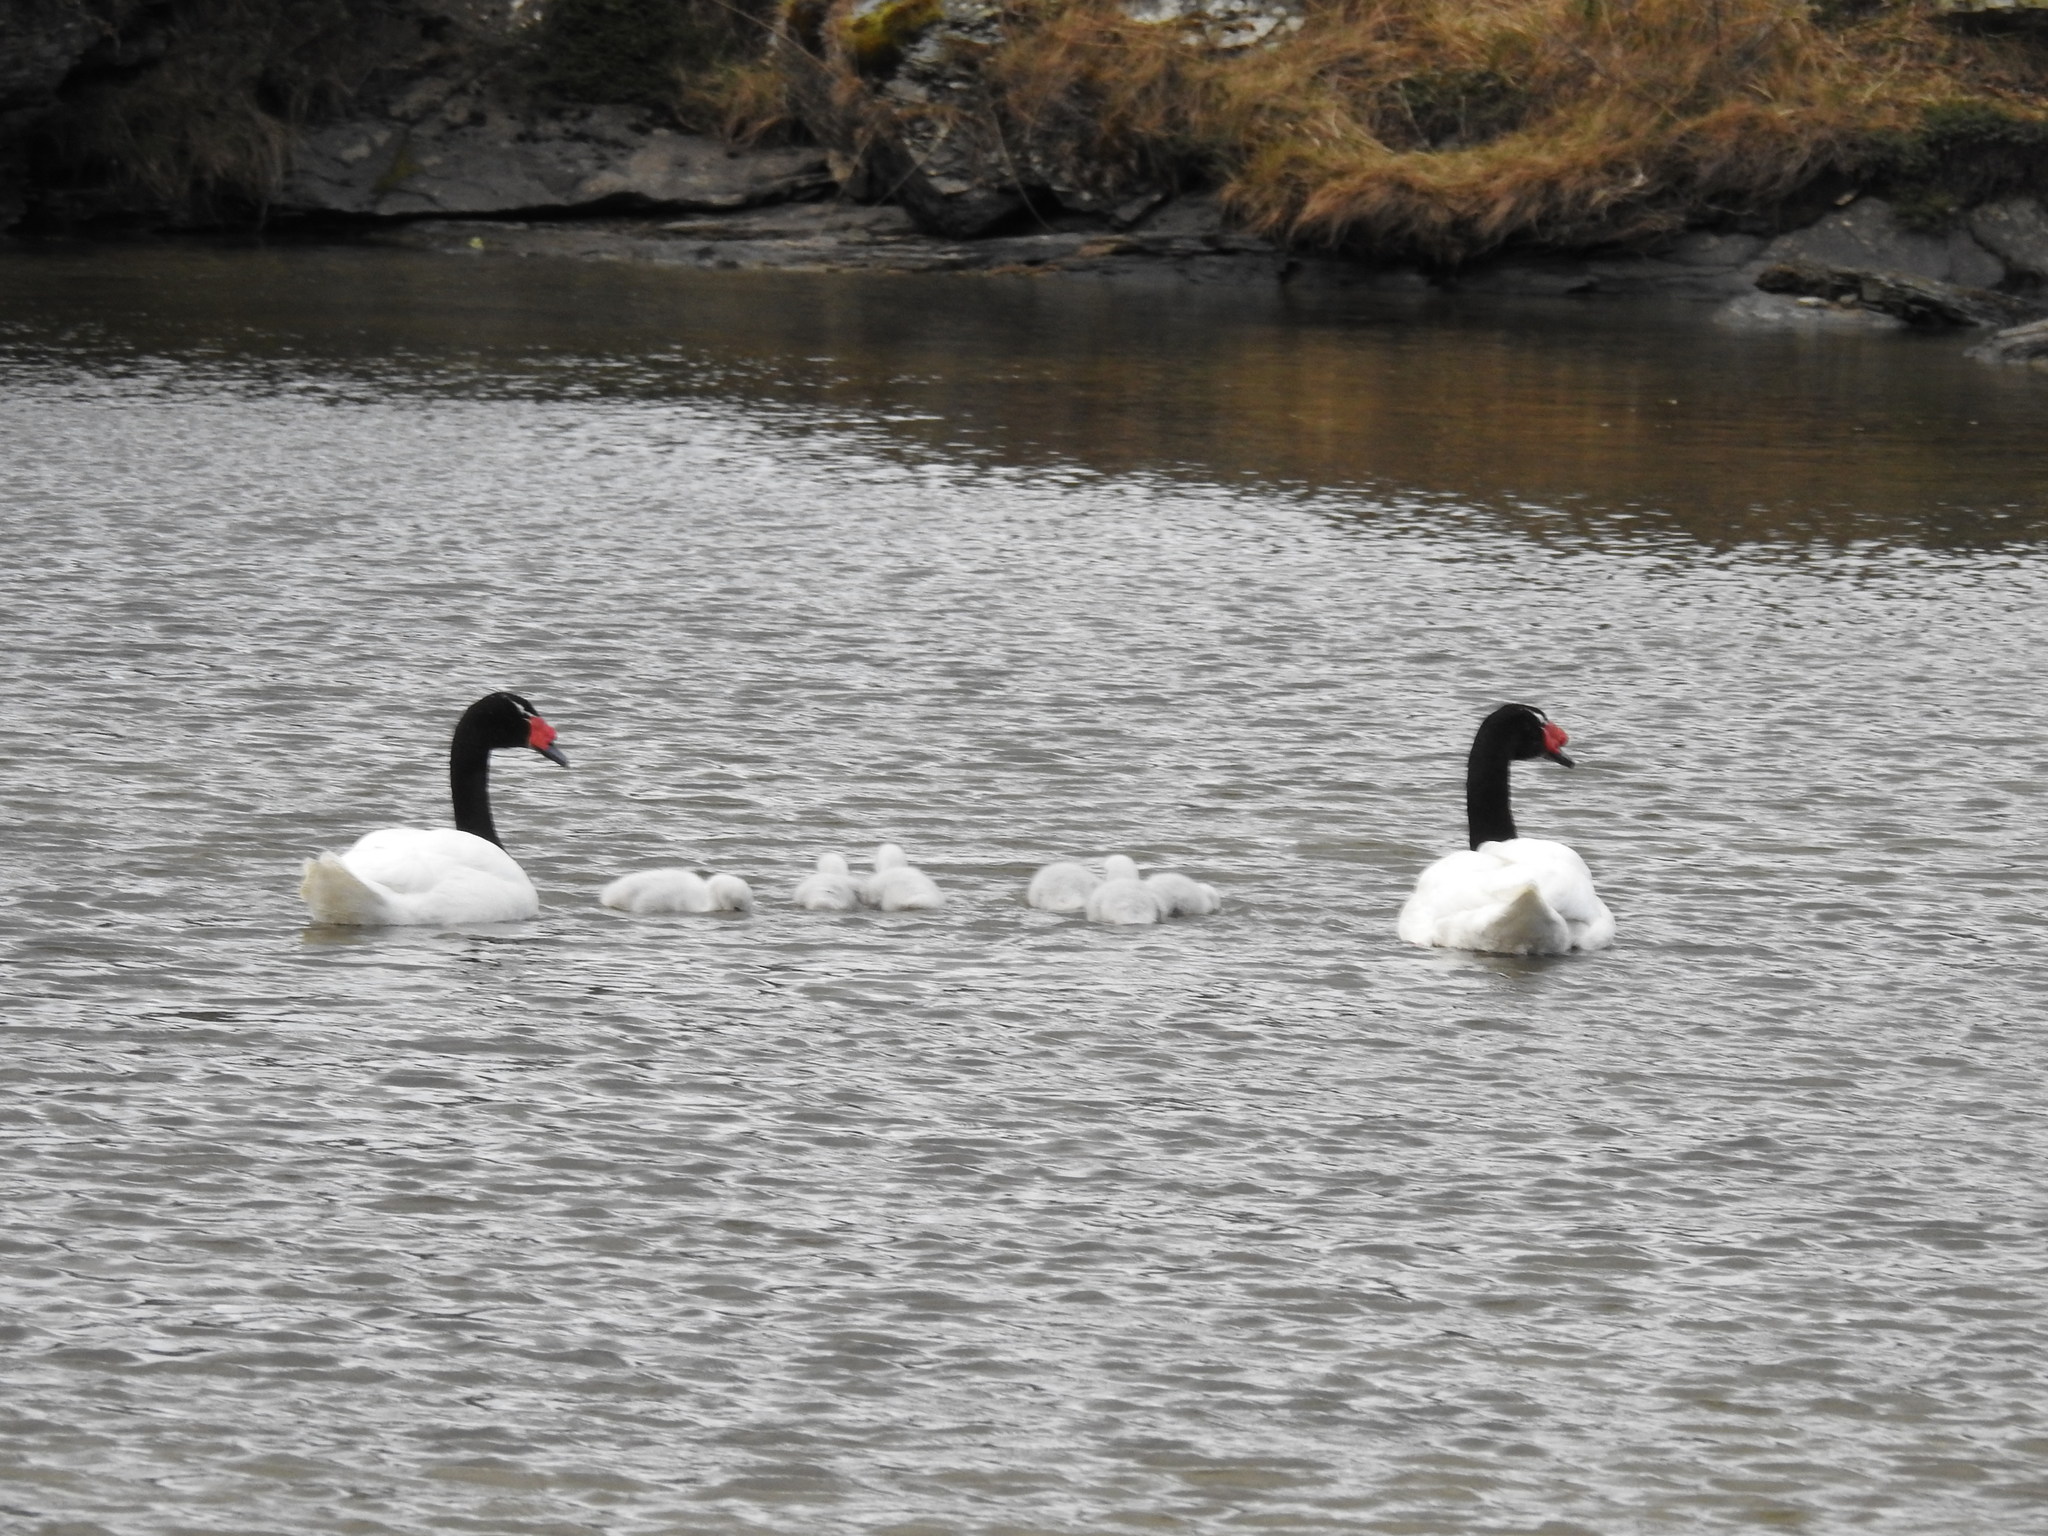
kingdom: Animalia
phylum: Chordata
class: Aves
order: Anseriformes
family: Anatidae
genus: Cygnus
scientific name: Cygnus melancoryphus
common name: Black-necked swan
